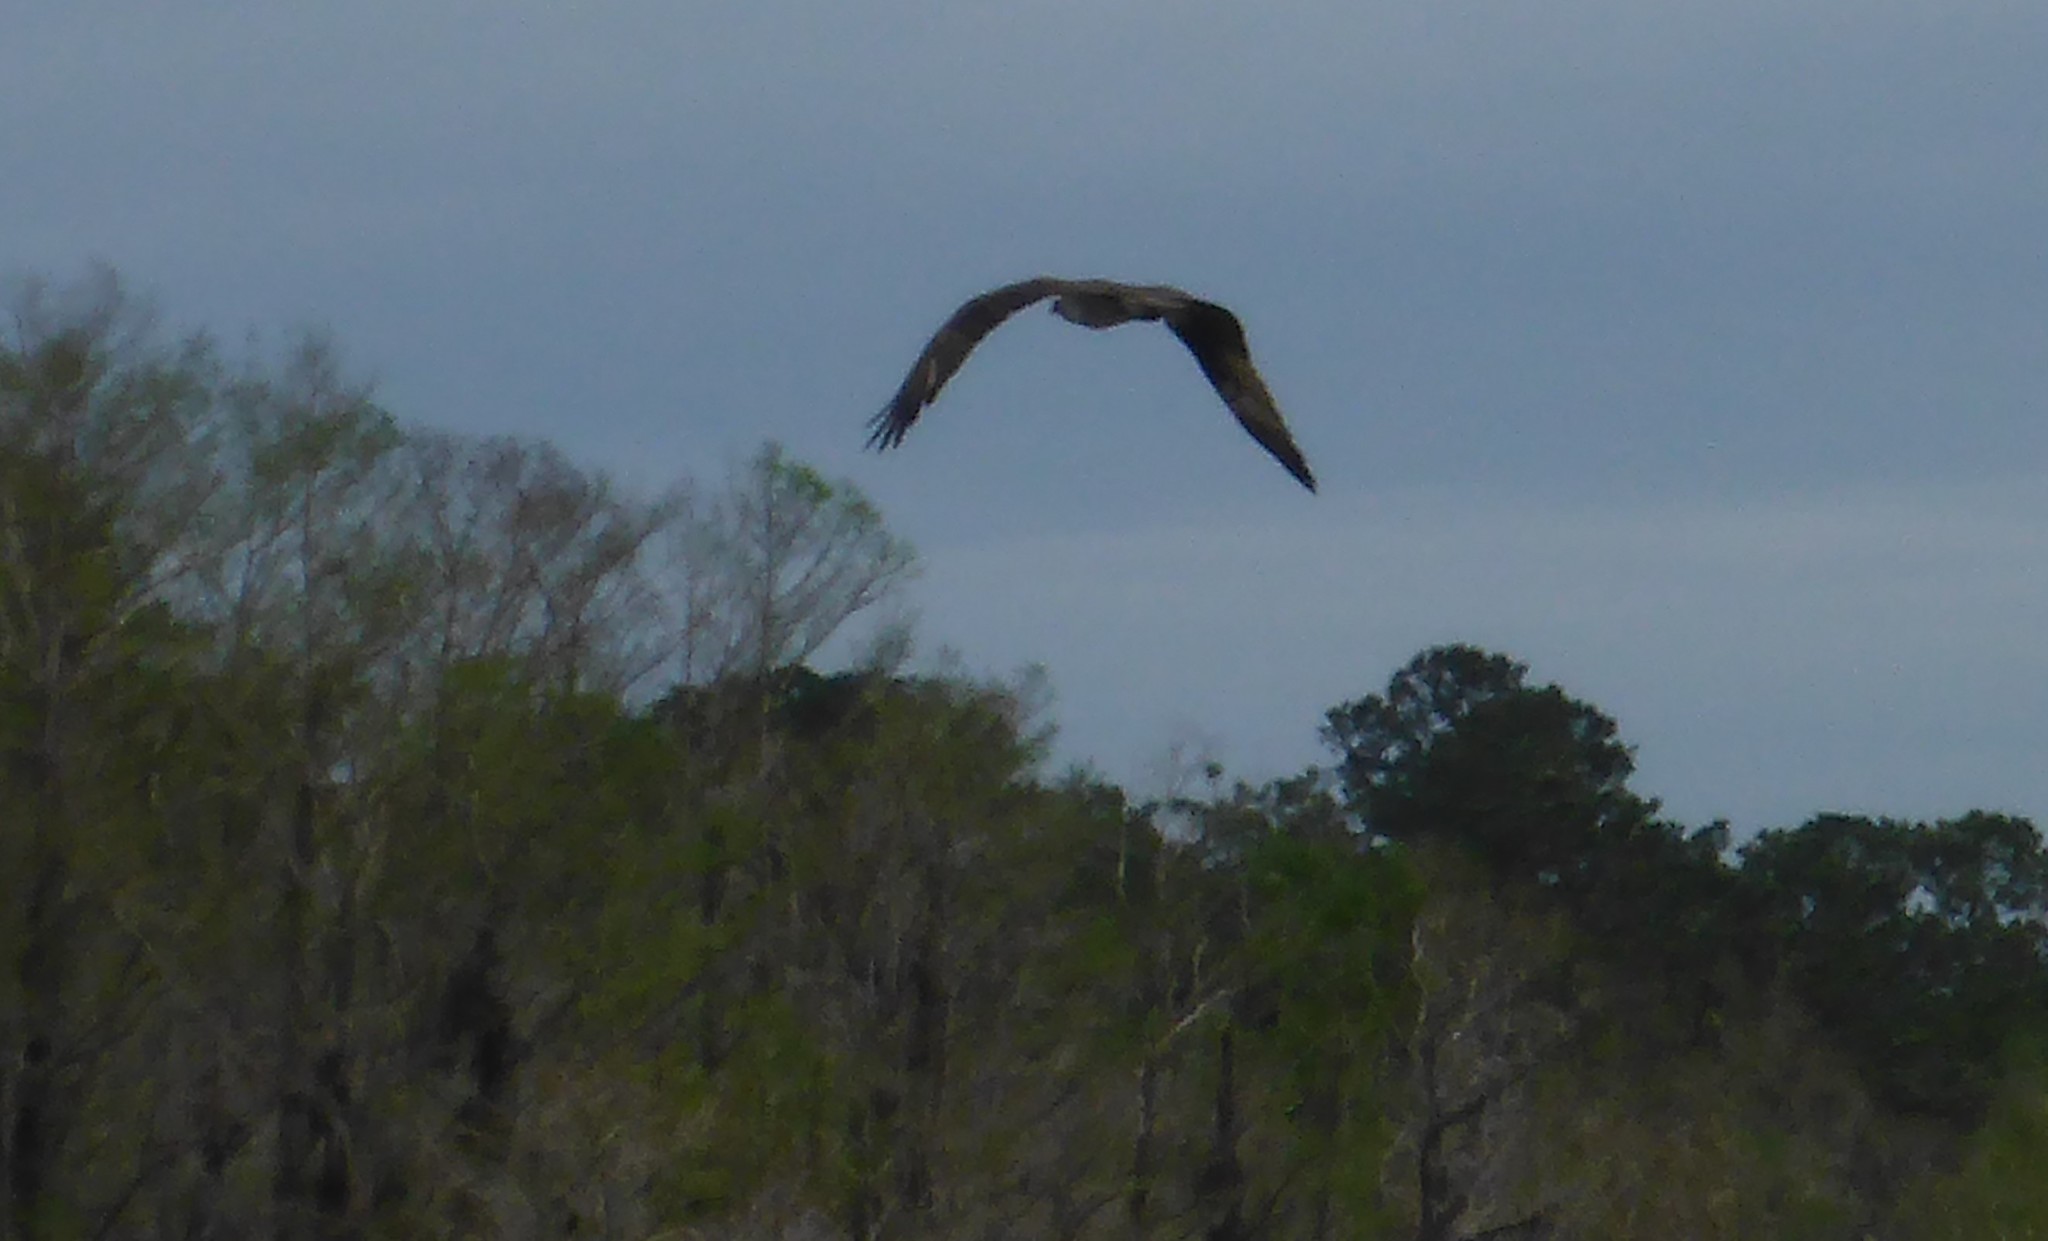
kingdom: Animalia
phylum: Chordata
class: Aves
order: Accipitriformes
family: Pandionidae
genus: Pandion
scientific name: Pandion haliaetus
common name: Osprey
